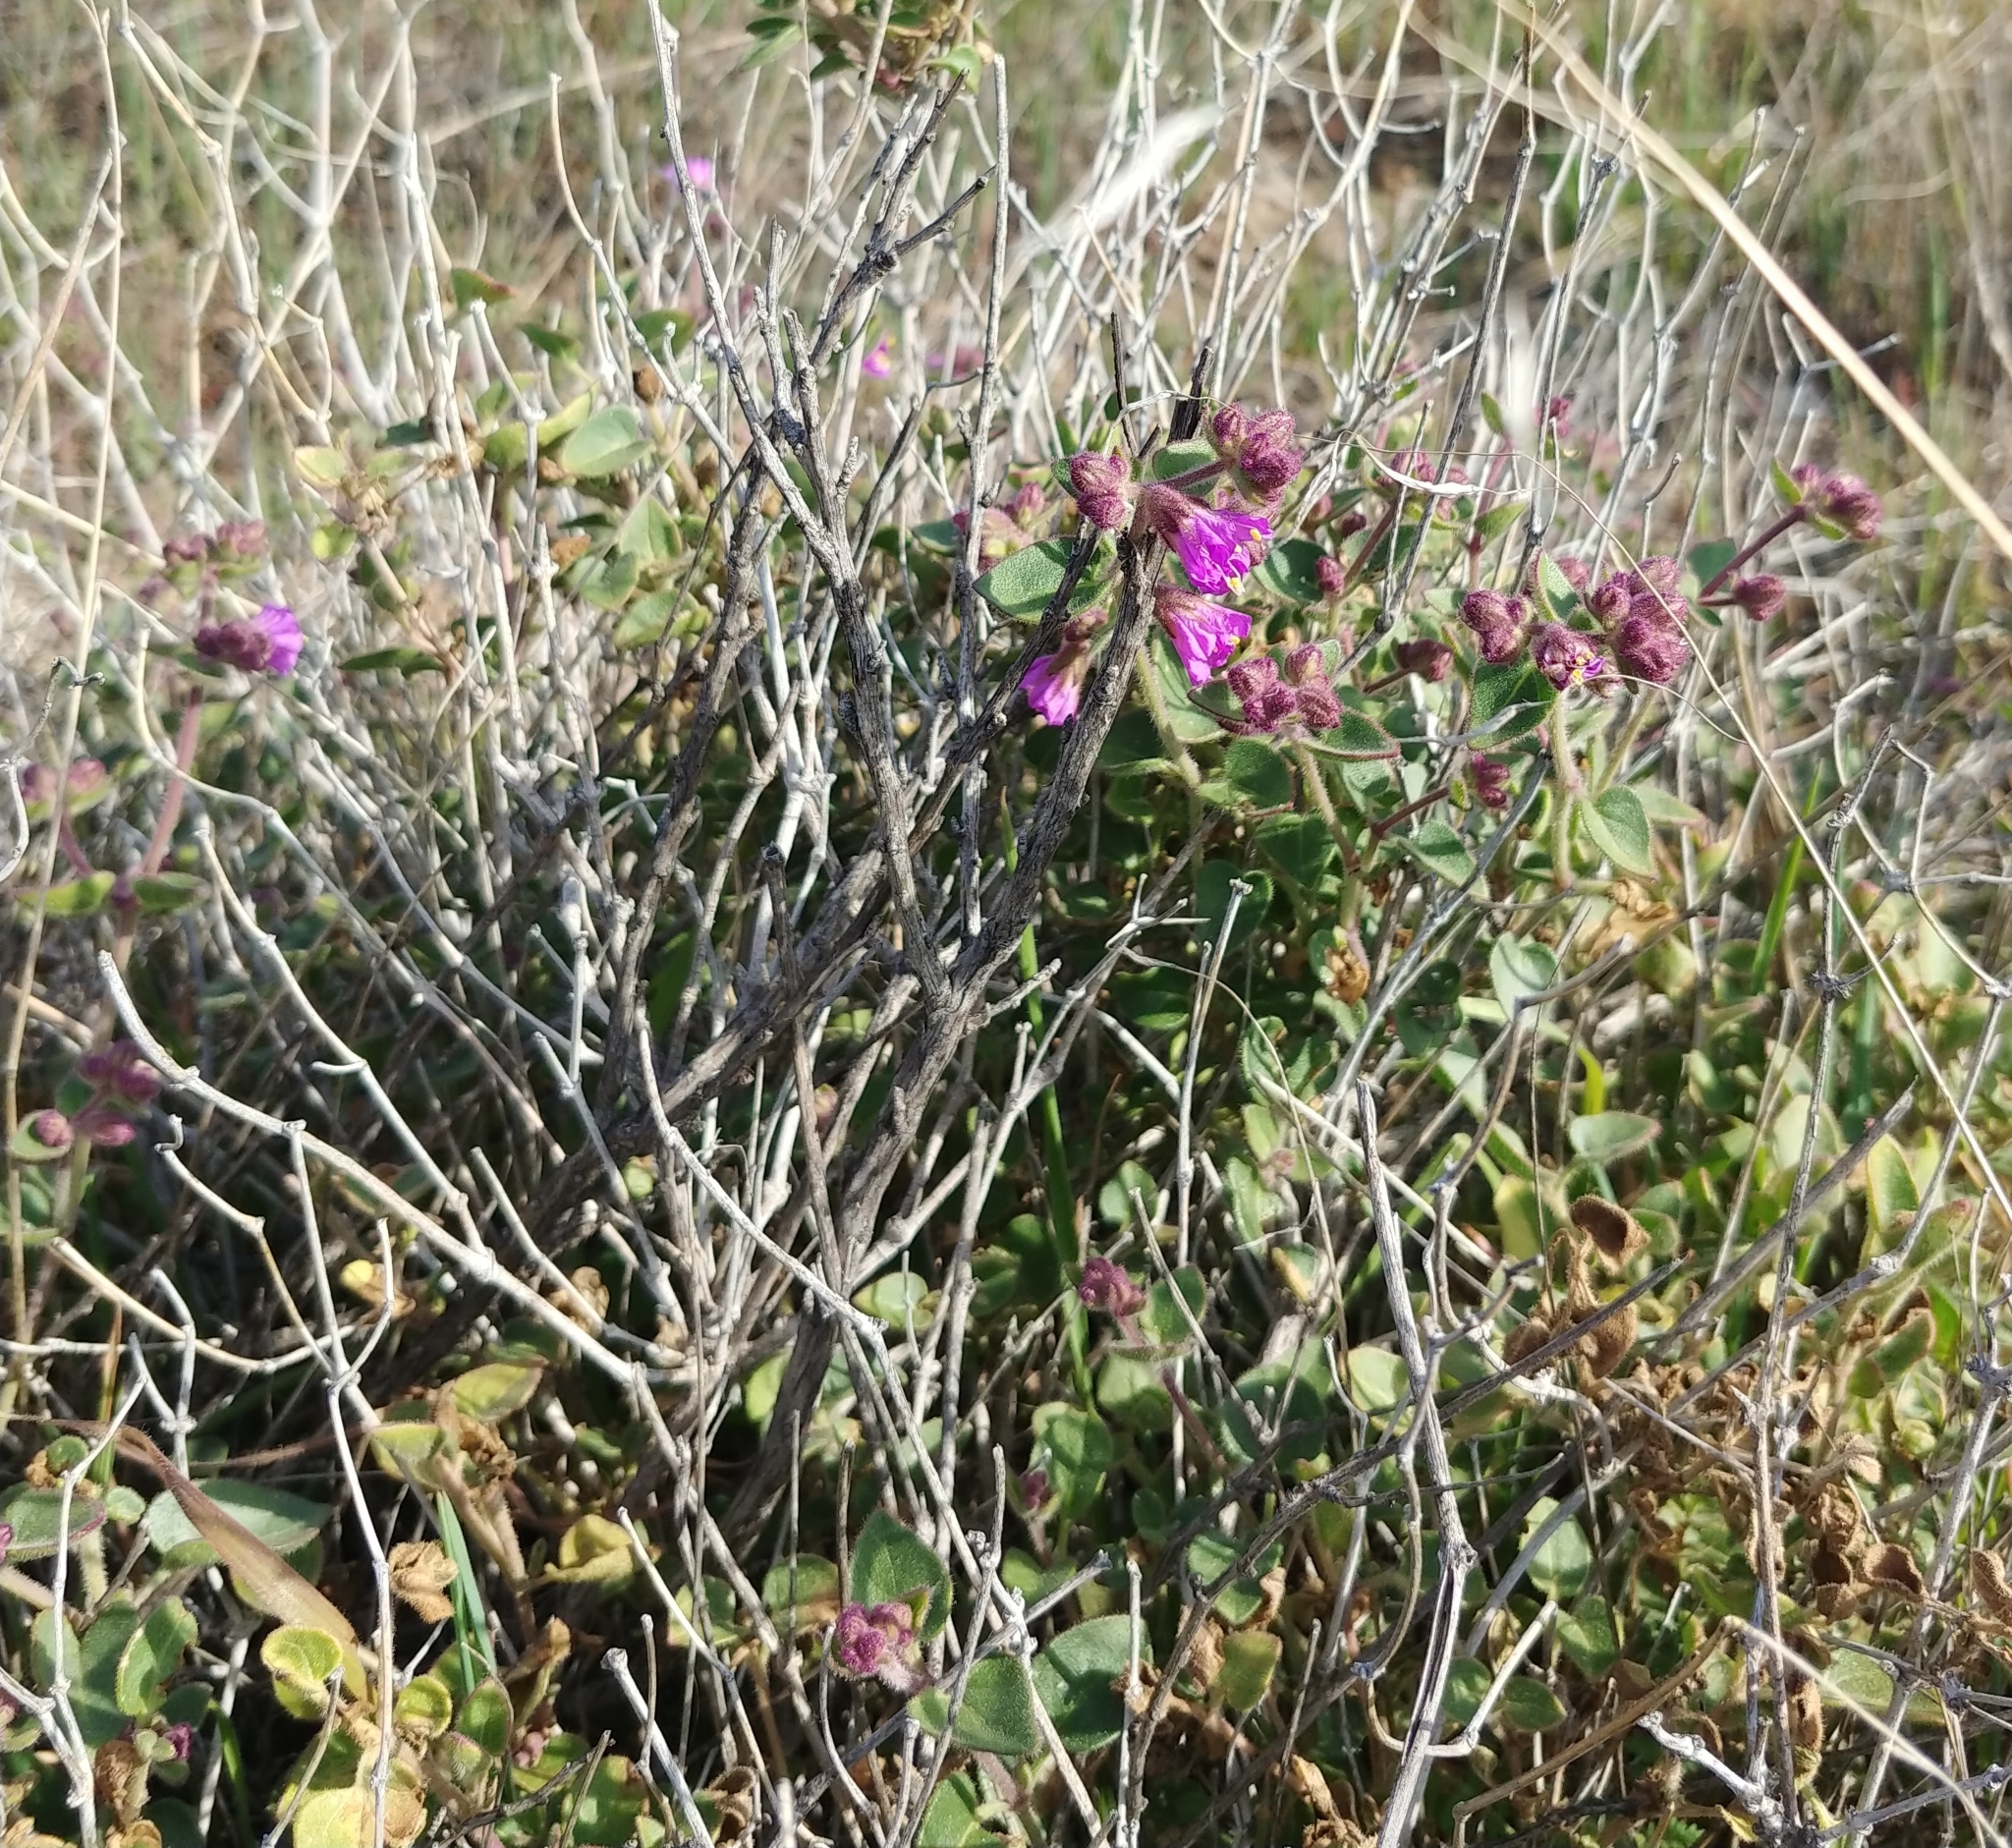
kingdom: Plantae
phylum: Tracheophyta
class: Magnoliopsida
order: Caryophyllales
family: Nyctaginaceae
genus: Mirabilis
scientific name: Mirabilis laevis
